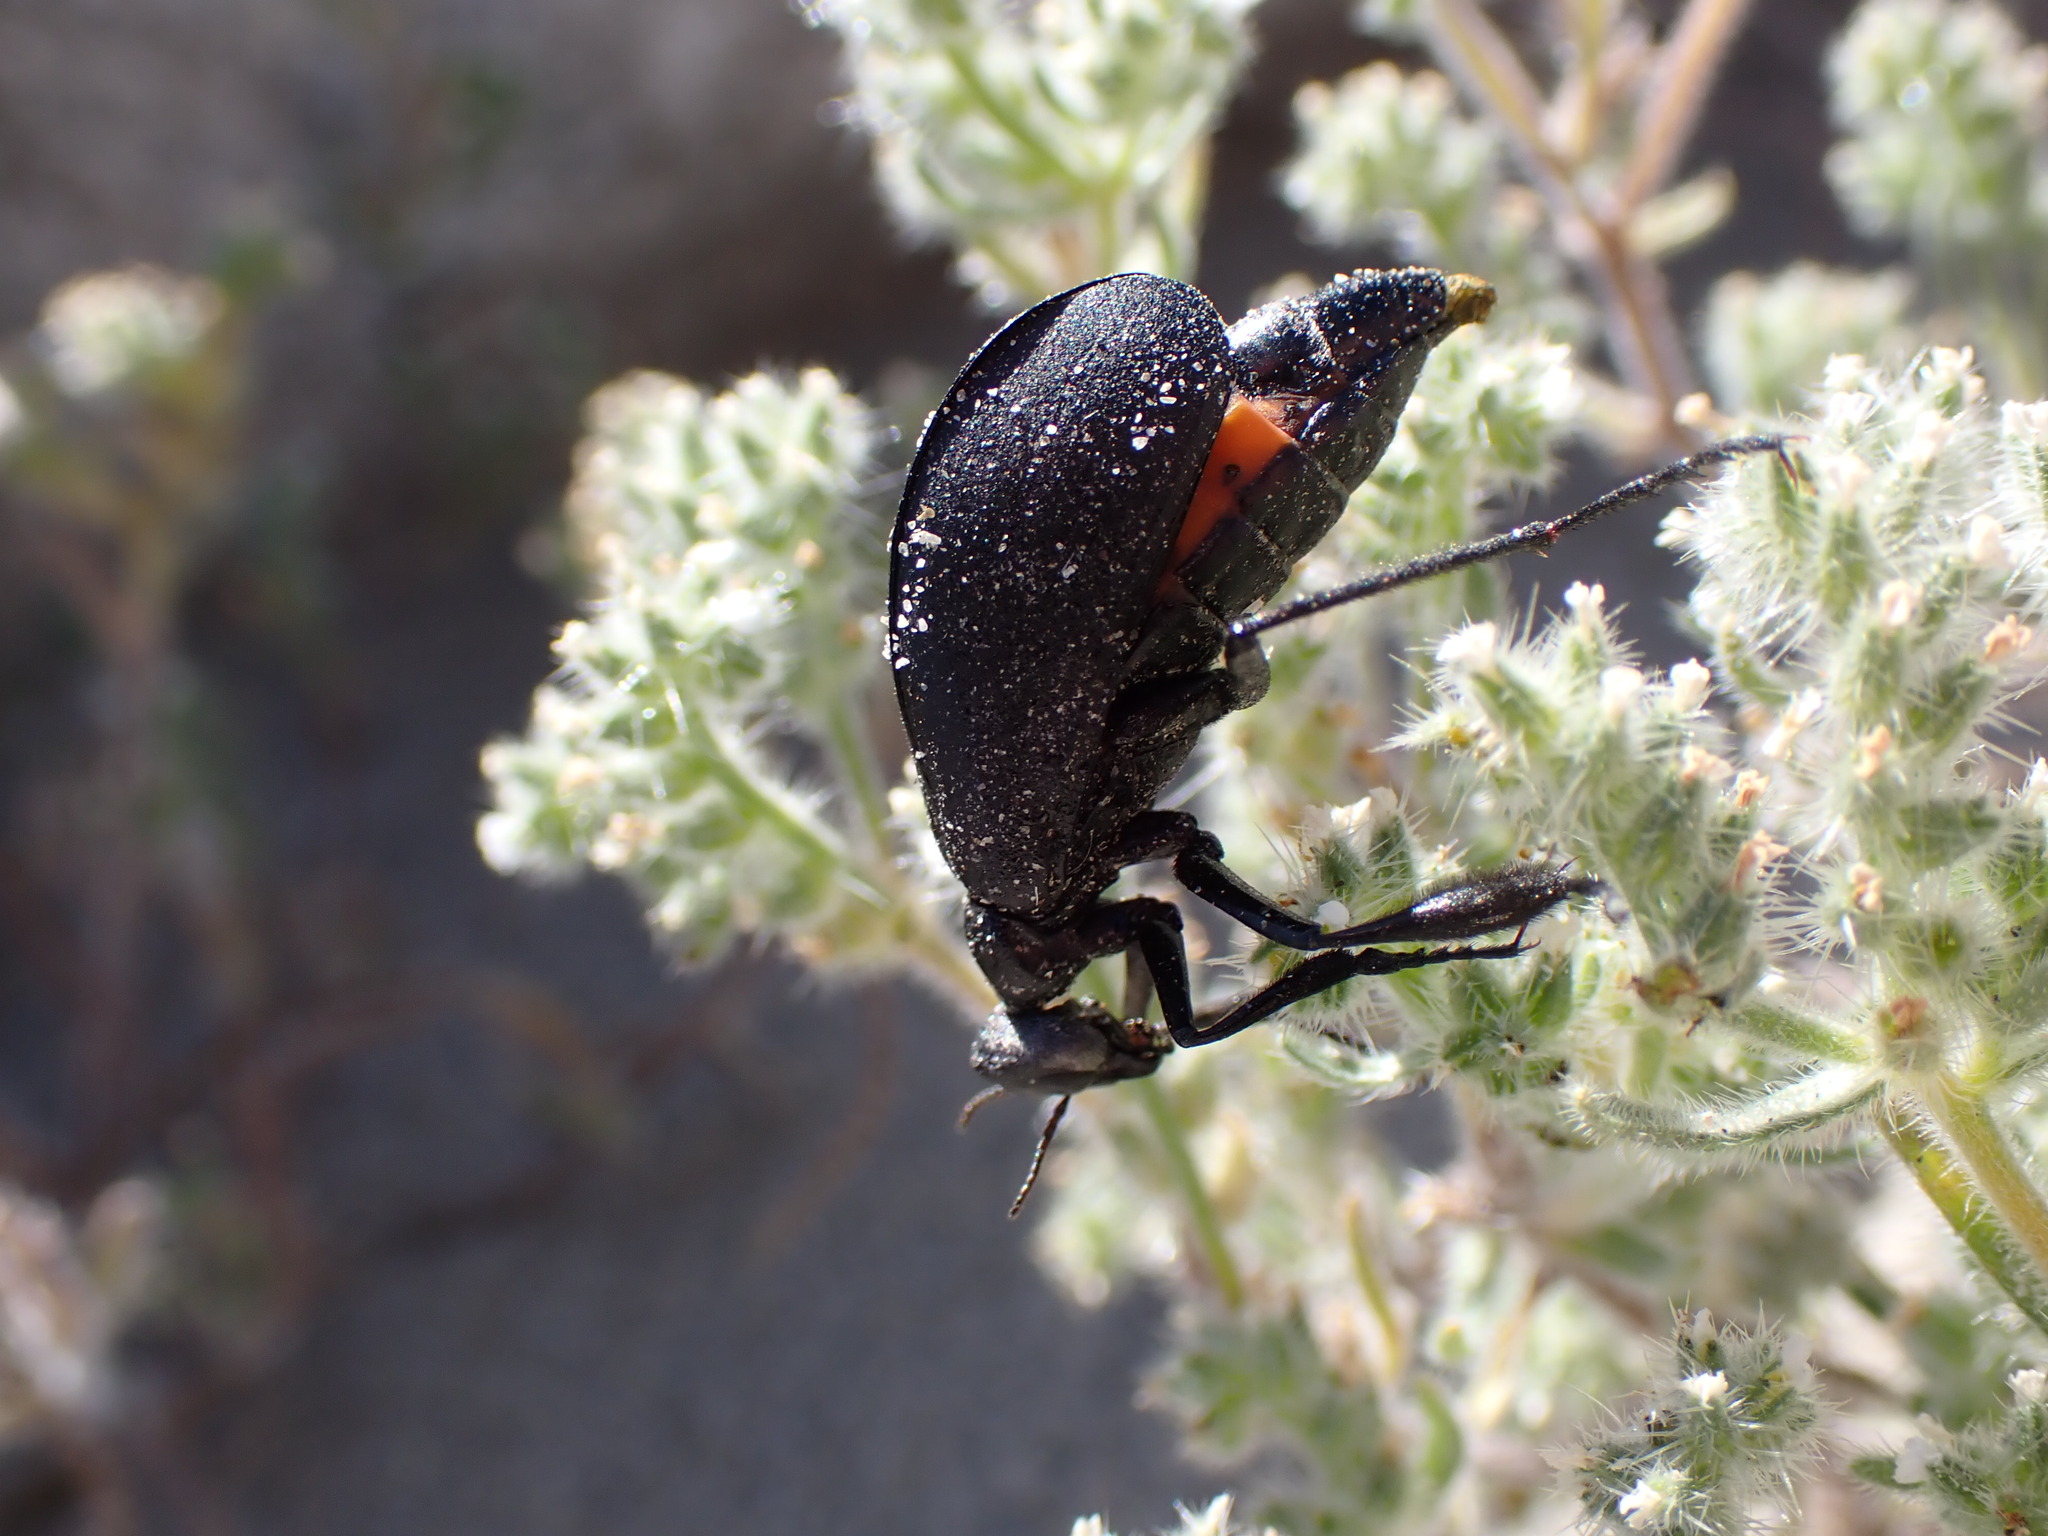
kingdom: Animalia
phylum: Arthropoda
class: Insecta
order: Coleoptera
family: Meloidae
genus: Phodaga
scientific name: Phodaga alticeps
